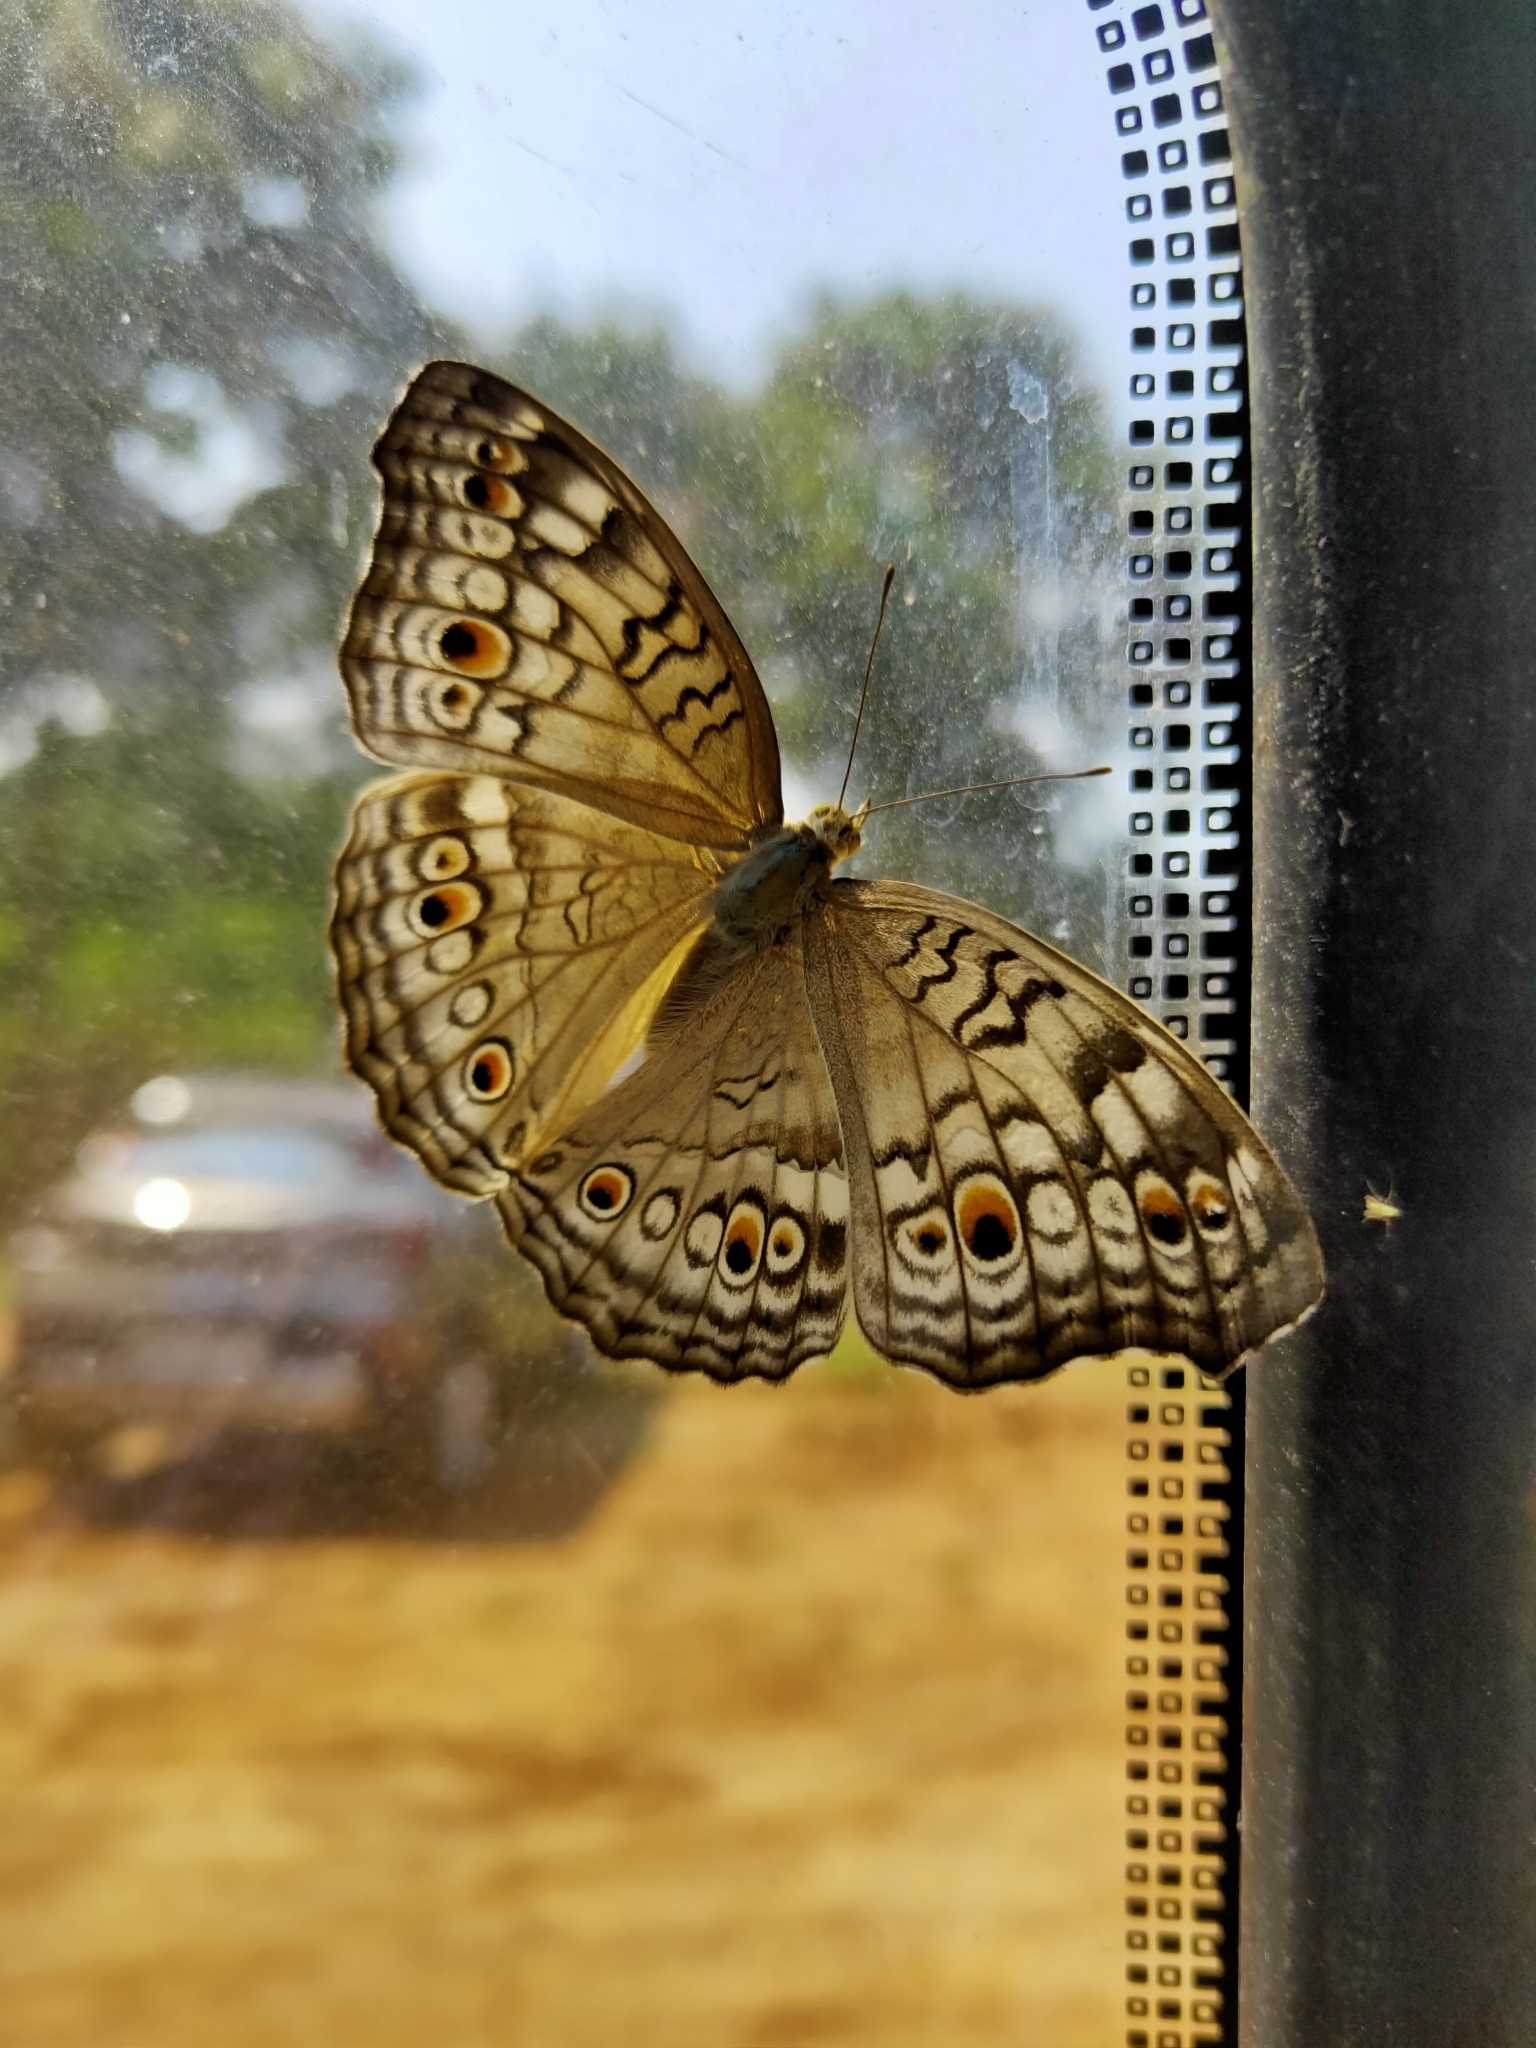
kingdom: Animalia
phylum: Arthropoda
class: Insecta
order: Lepidoptera
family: Nymphalidae
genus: Junonia
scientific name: Junonia atlites
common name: Grey pansy
